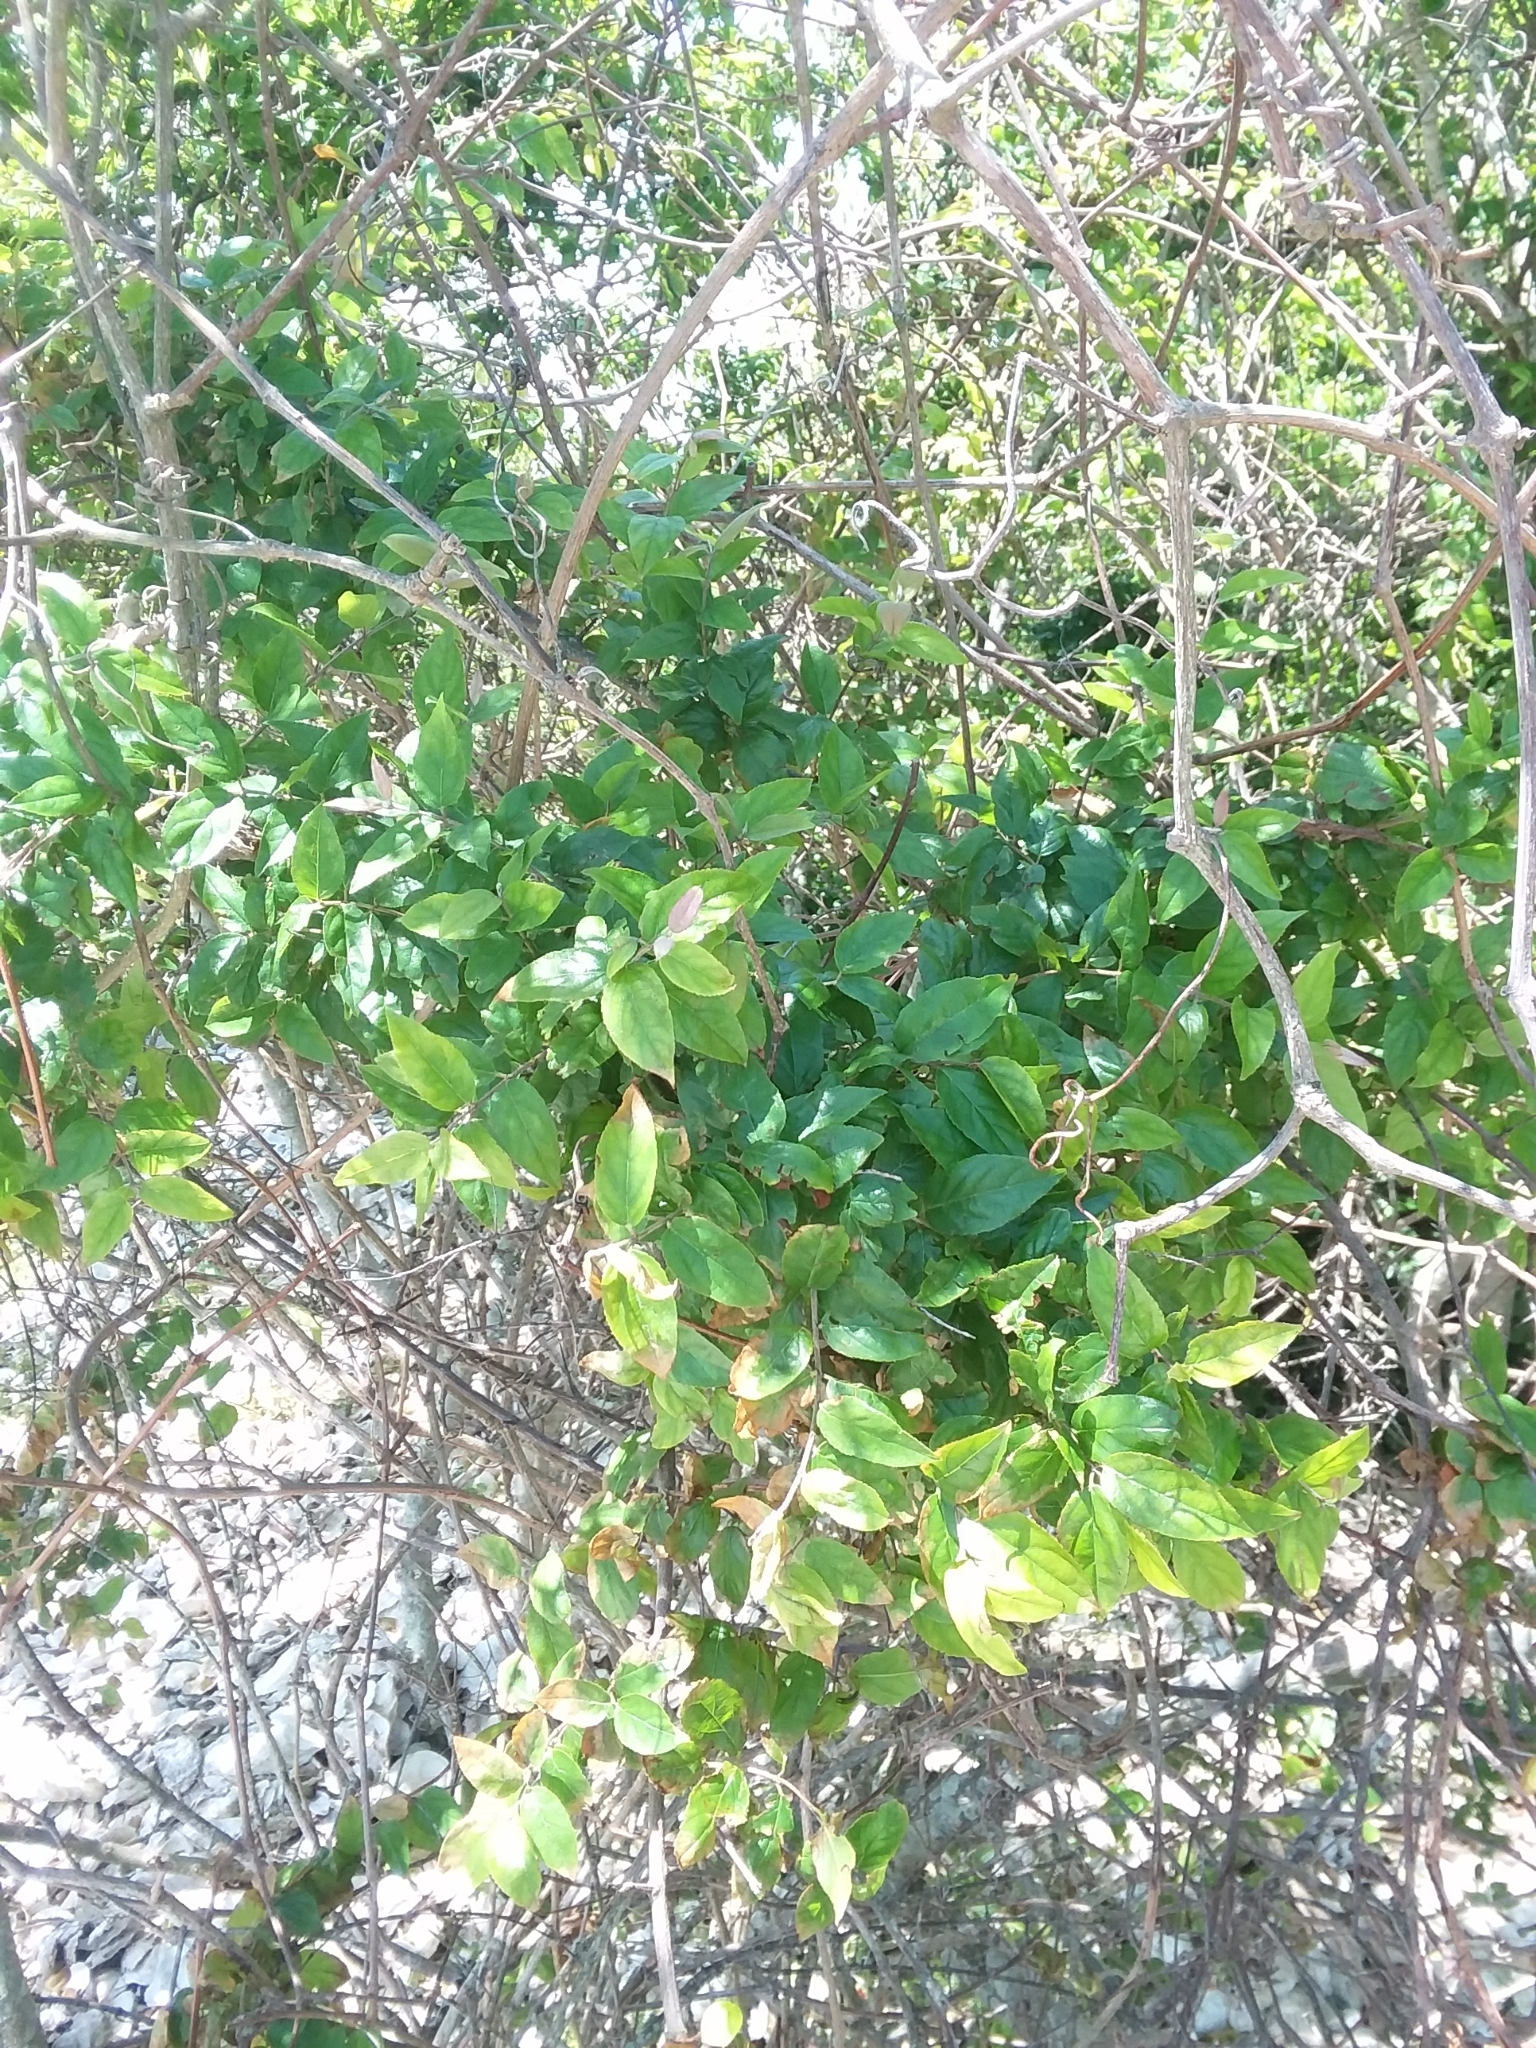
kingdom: Plantae
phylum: Tracheophyta
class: Magnoliopsida
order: Rosales
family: Rhamnaceae
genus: Sageretia
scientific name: Sageretia minutiflora
